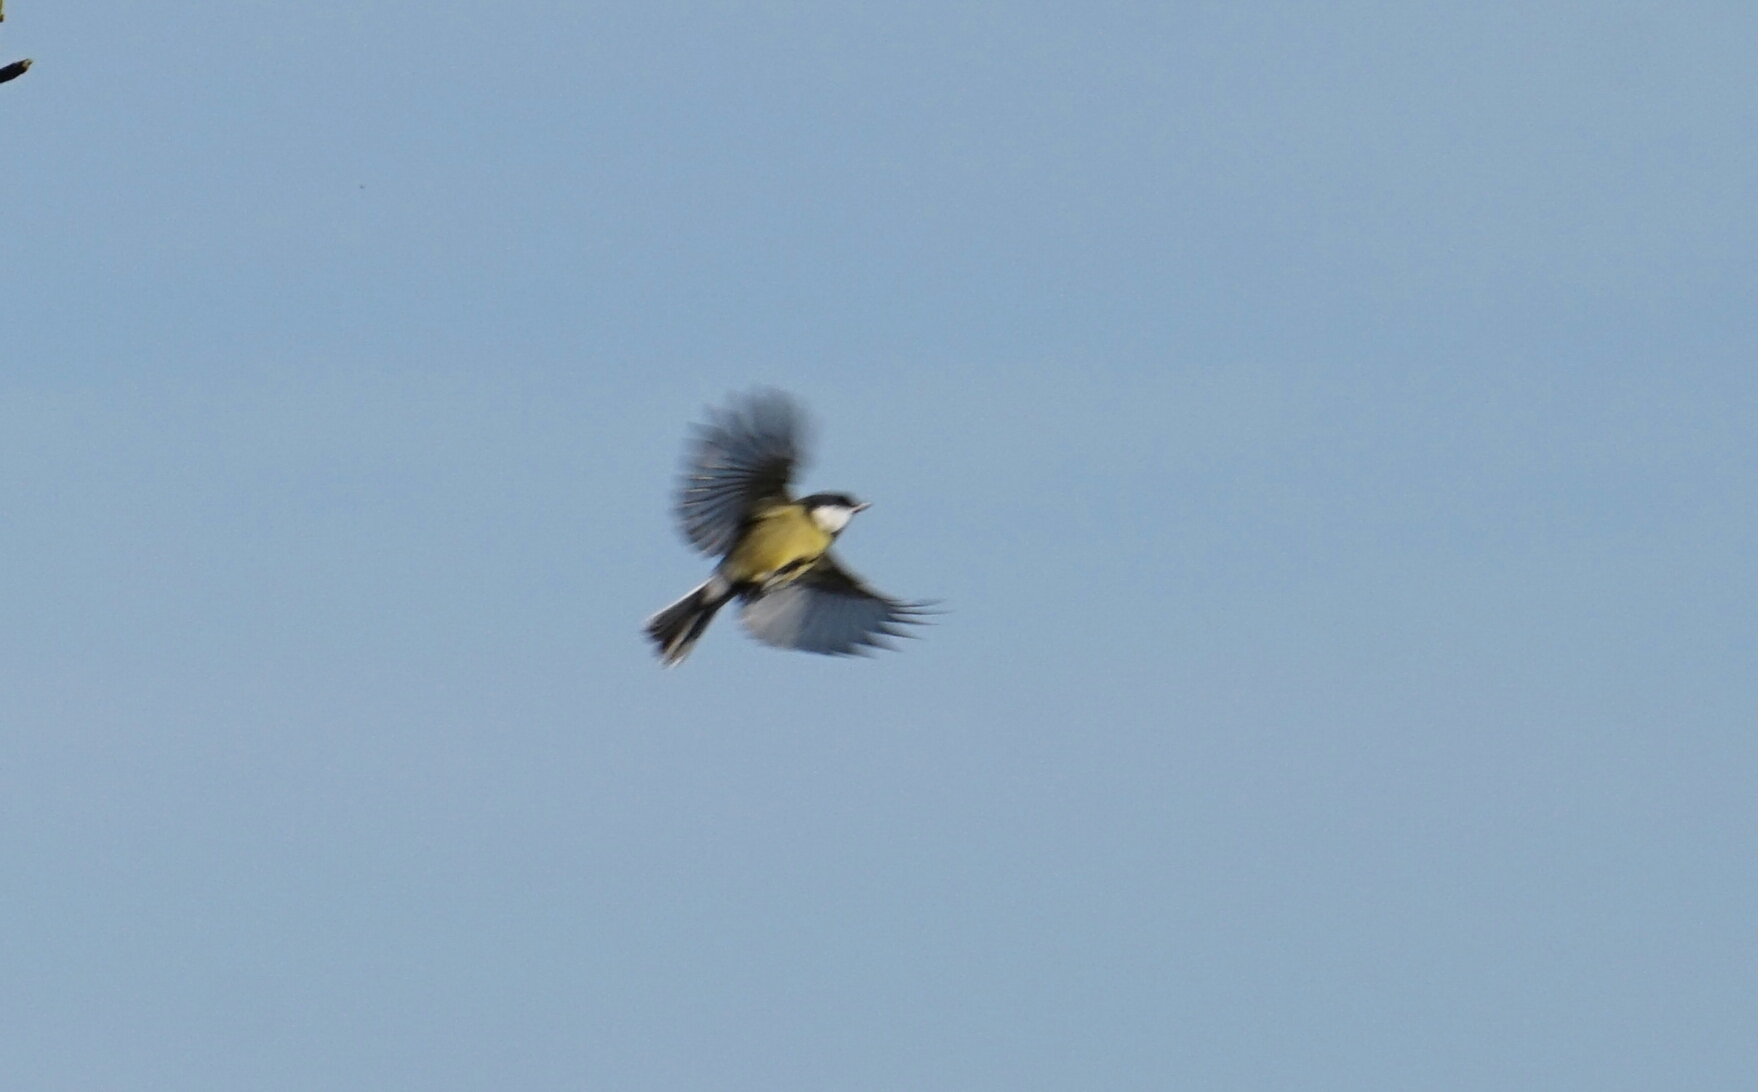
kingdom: Animalia
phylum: Chordata
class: Aves
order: Passeriformes
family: Paridae
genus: Parus
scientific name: Parus major
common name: Great tit
